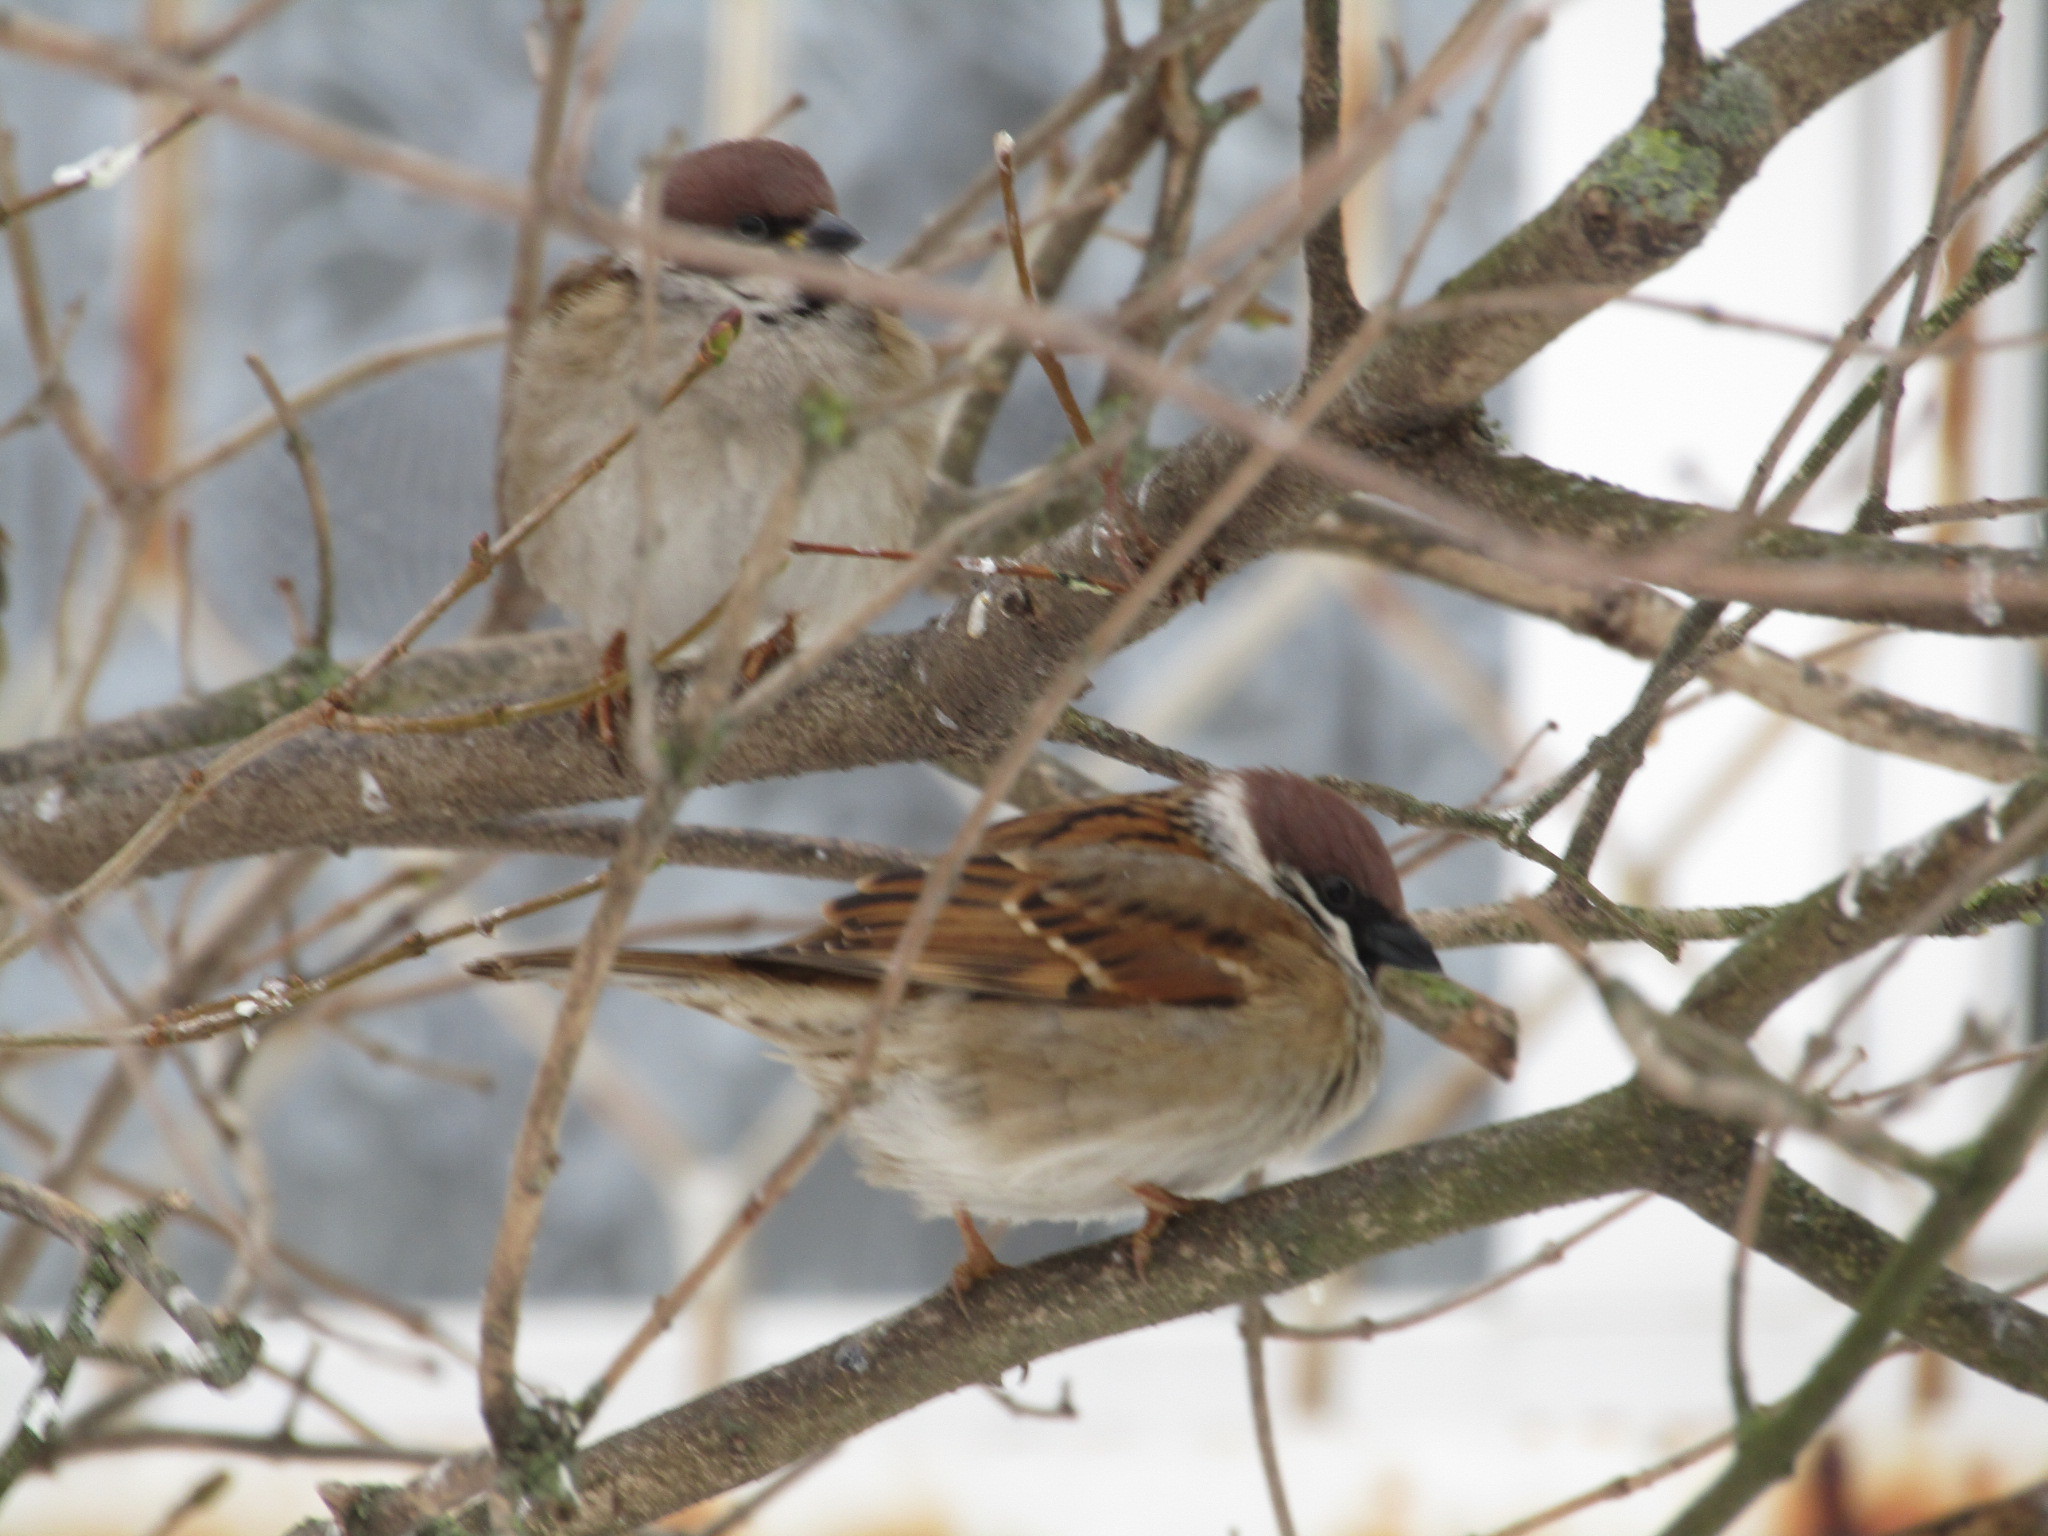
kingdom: Animalia
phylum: Chordata
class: Aves
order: Passeriformes
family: Passeridae
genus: Passer
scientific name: Passer montanus
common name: Eurasian tree sparrow
